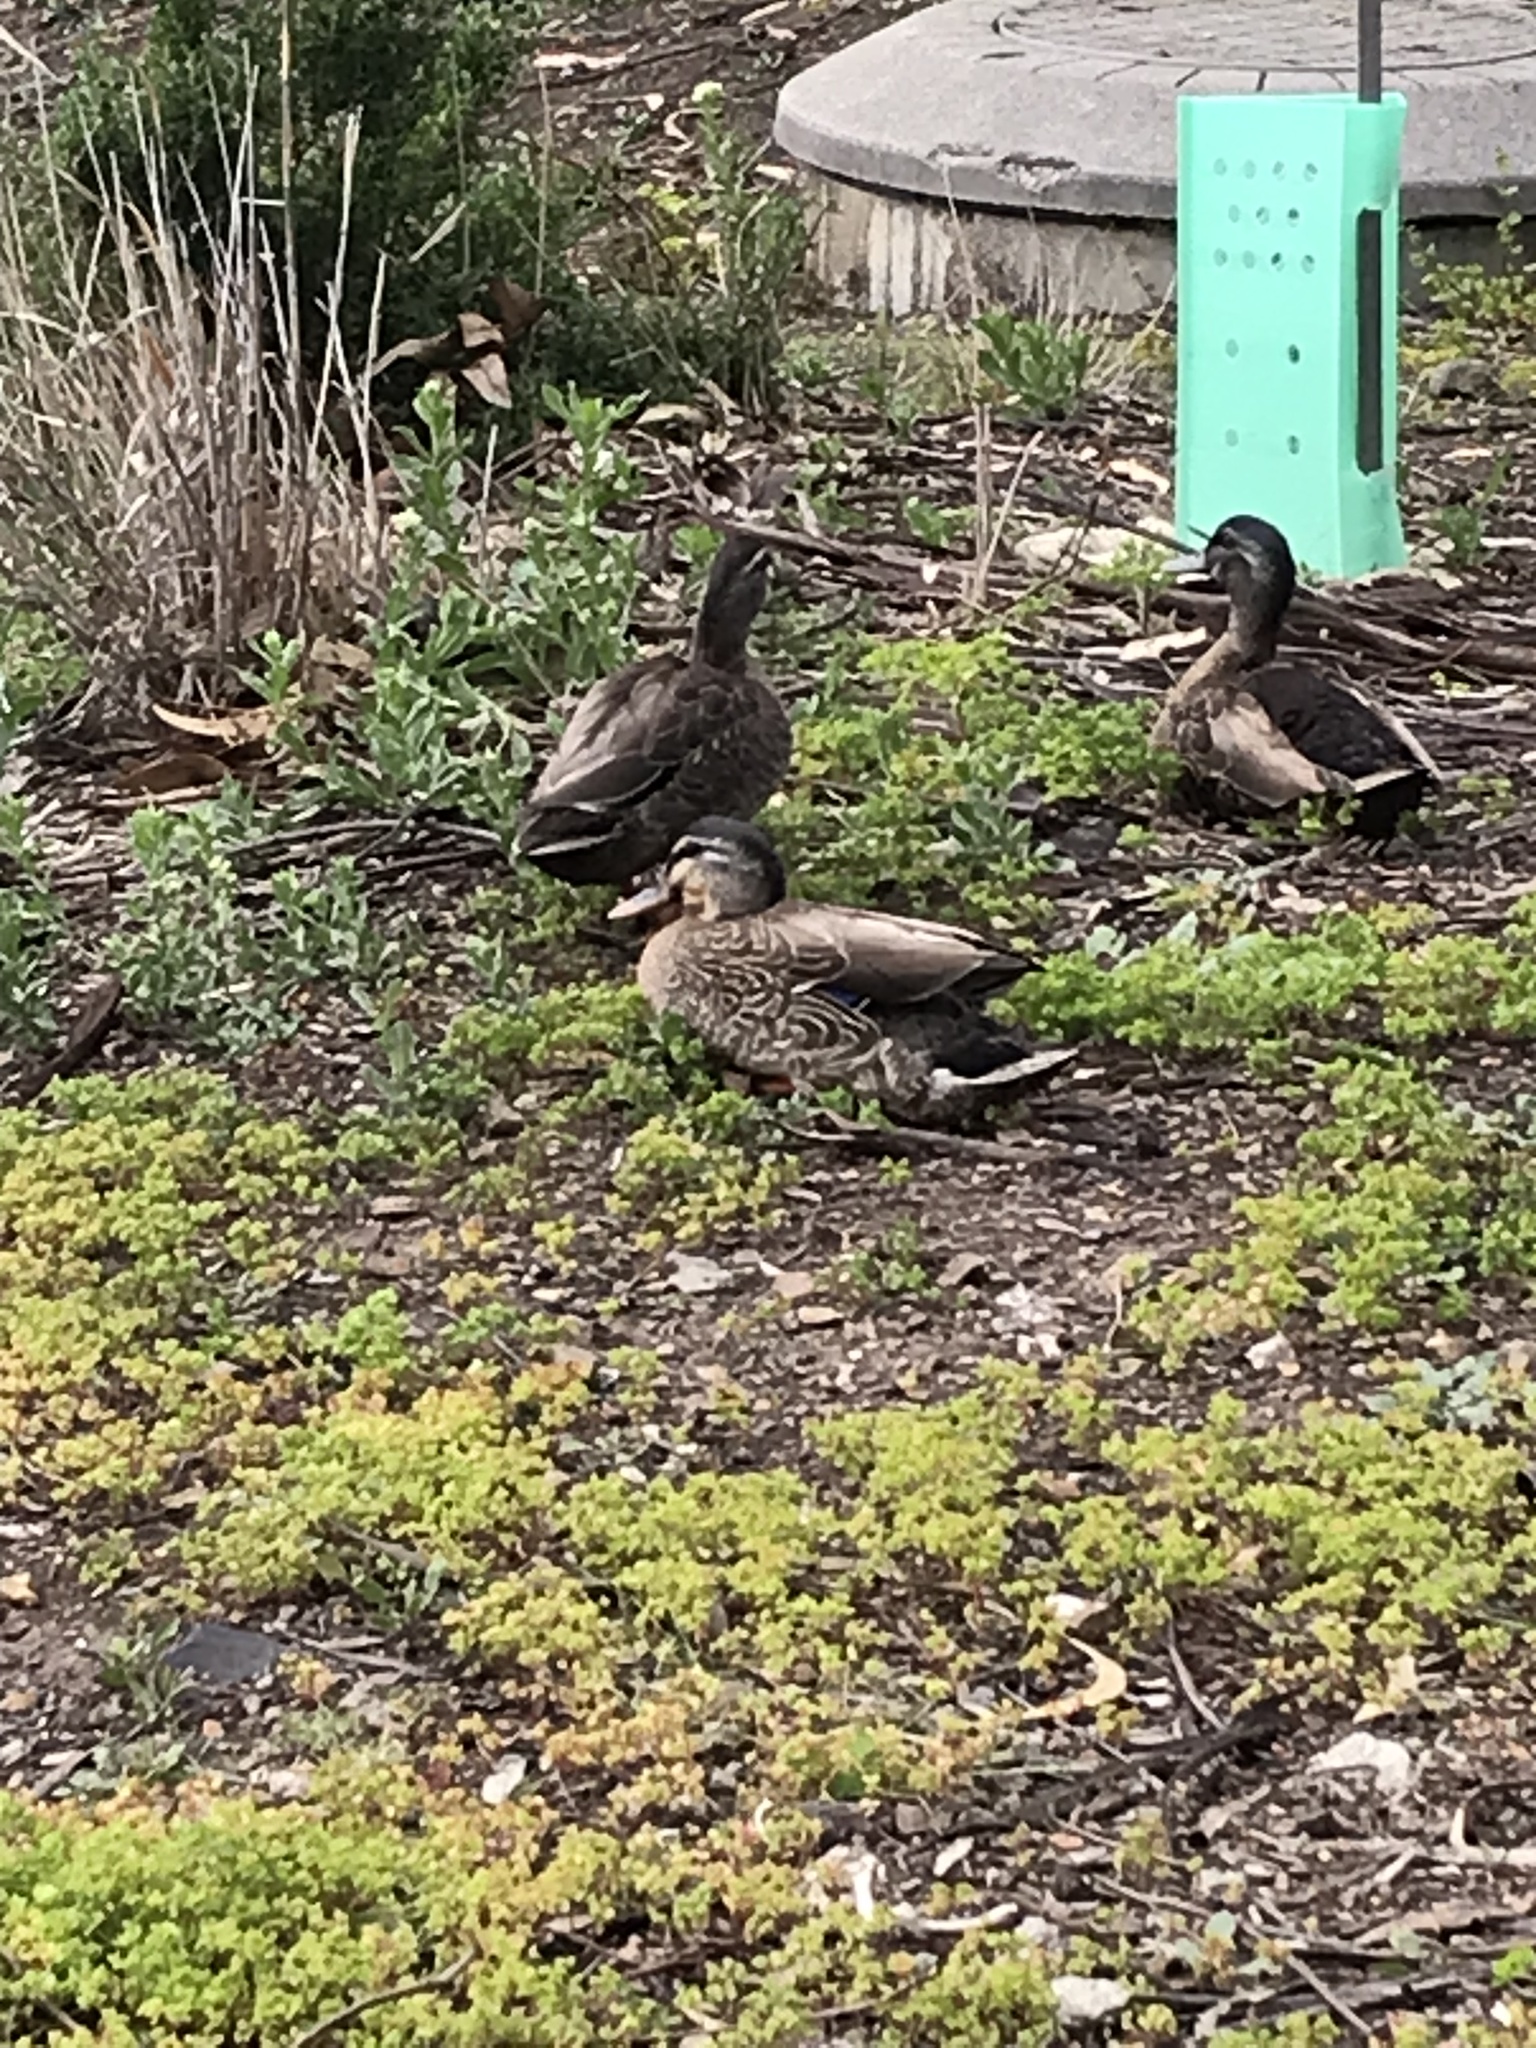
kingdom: Animalia
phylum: Chordata
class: Aves
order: Anseriformes
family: Anatidae
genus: Anas
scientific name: Anas
